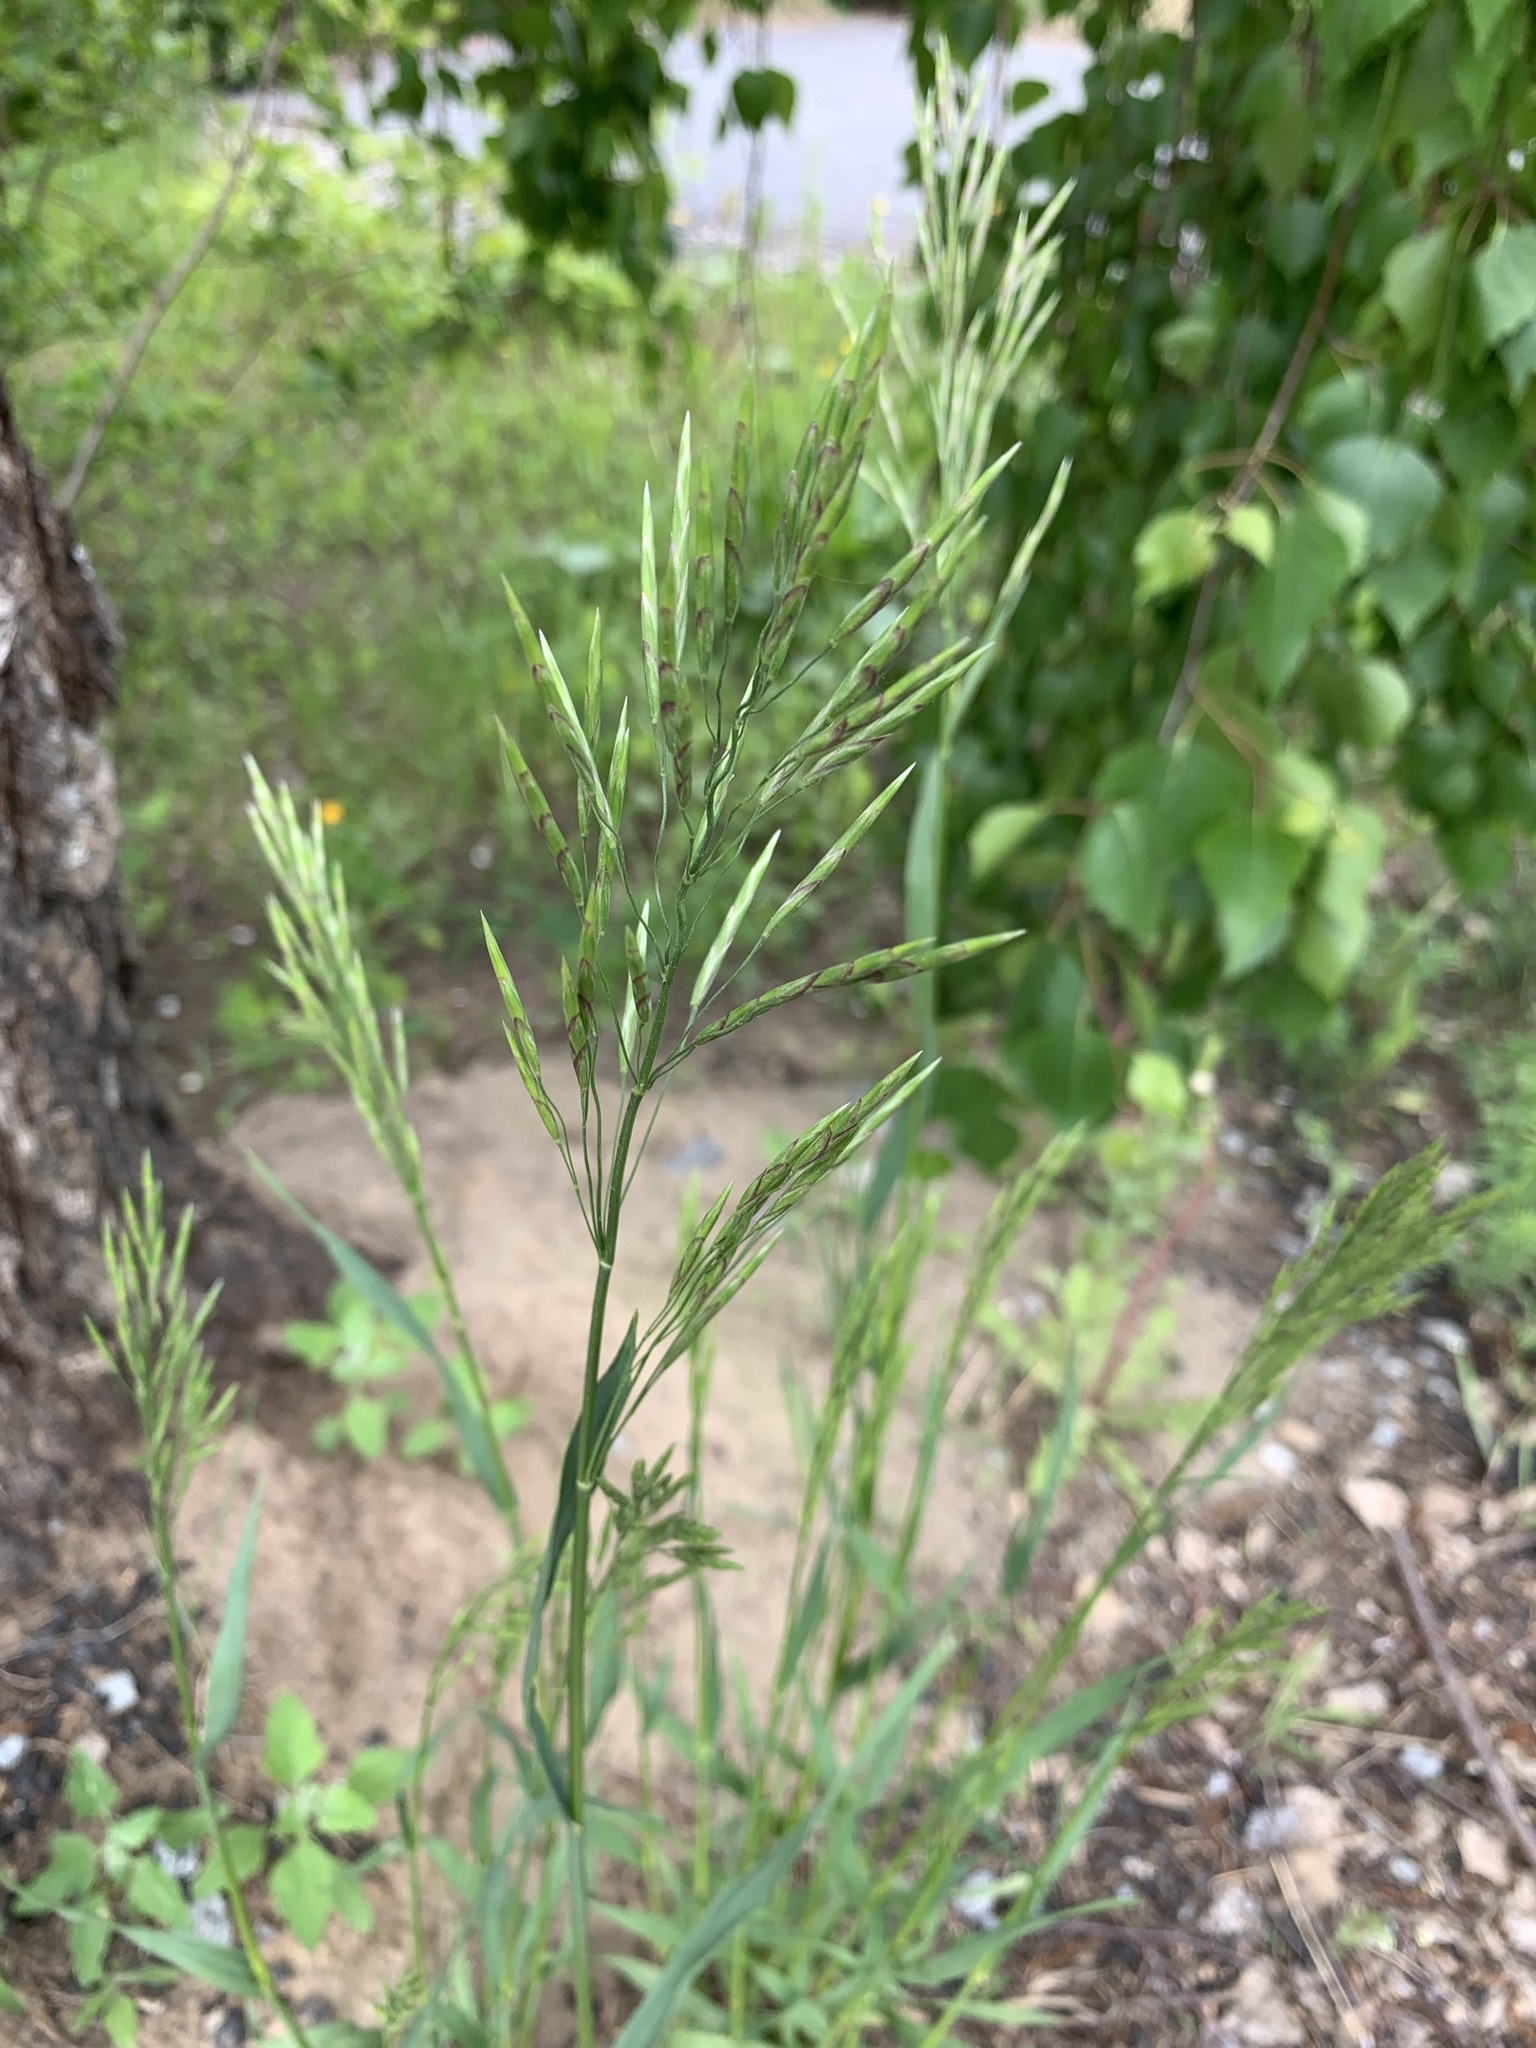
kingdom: Plantae
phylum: Tracheophyta
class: Liliopsida
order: Poales
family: Poaceae
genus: Bromus
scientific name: Bromus inermis
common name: Smooth brome
